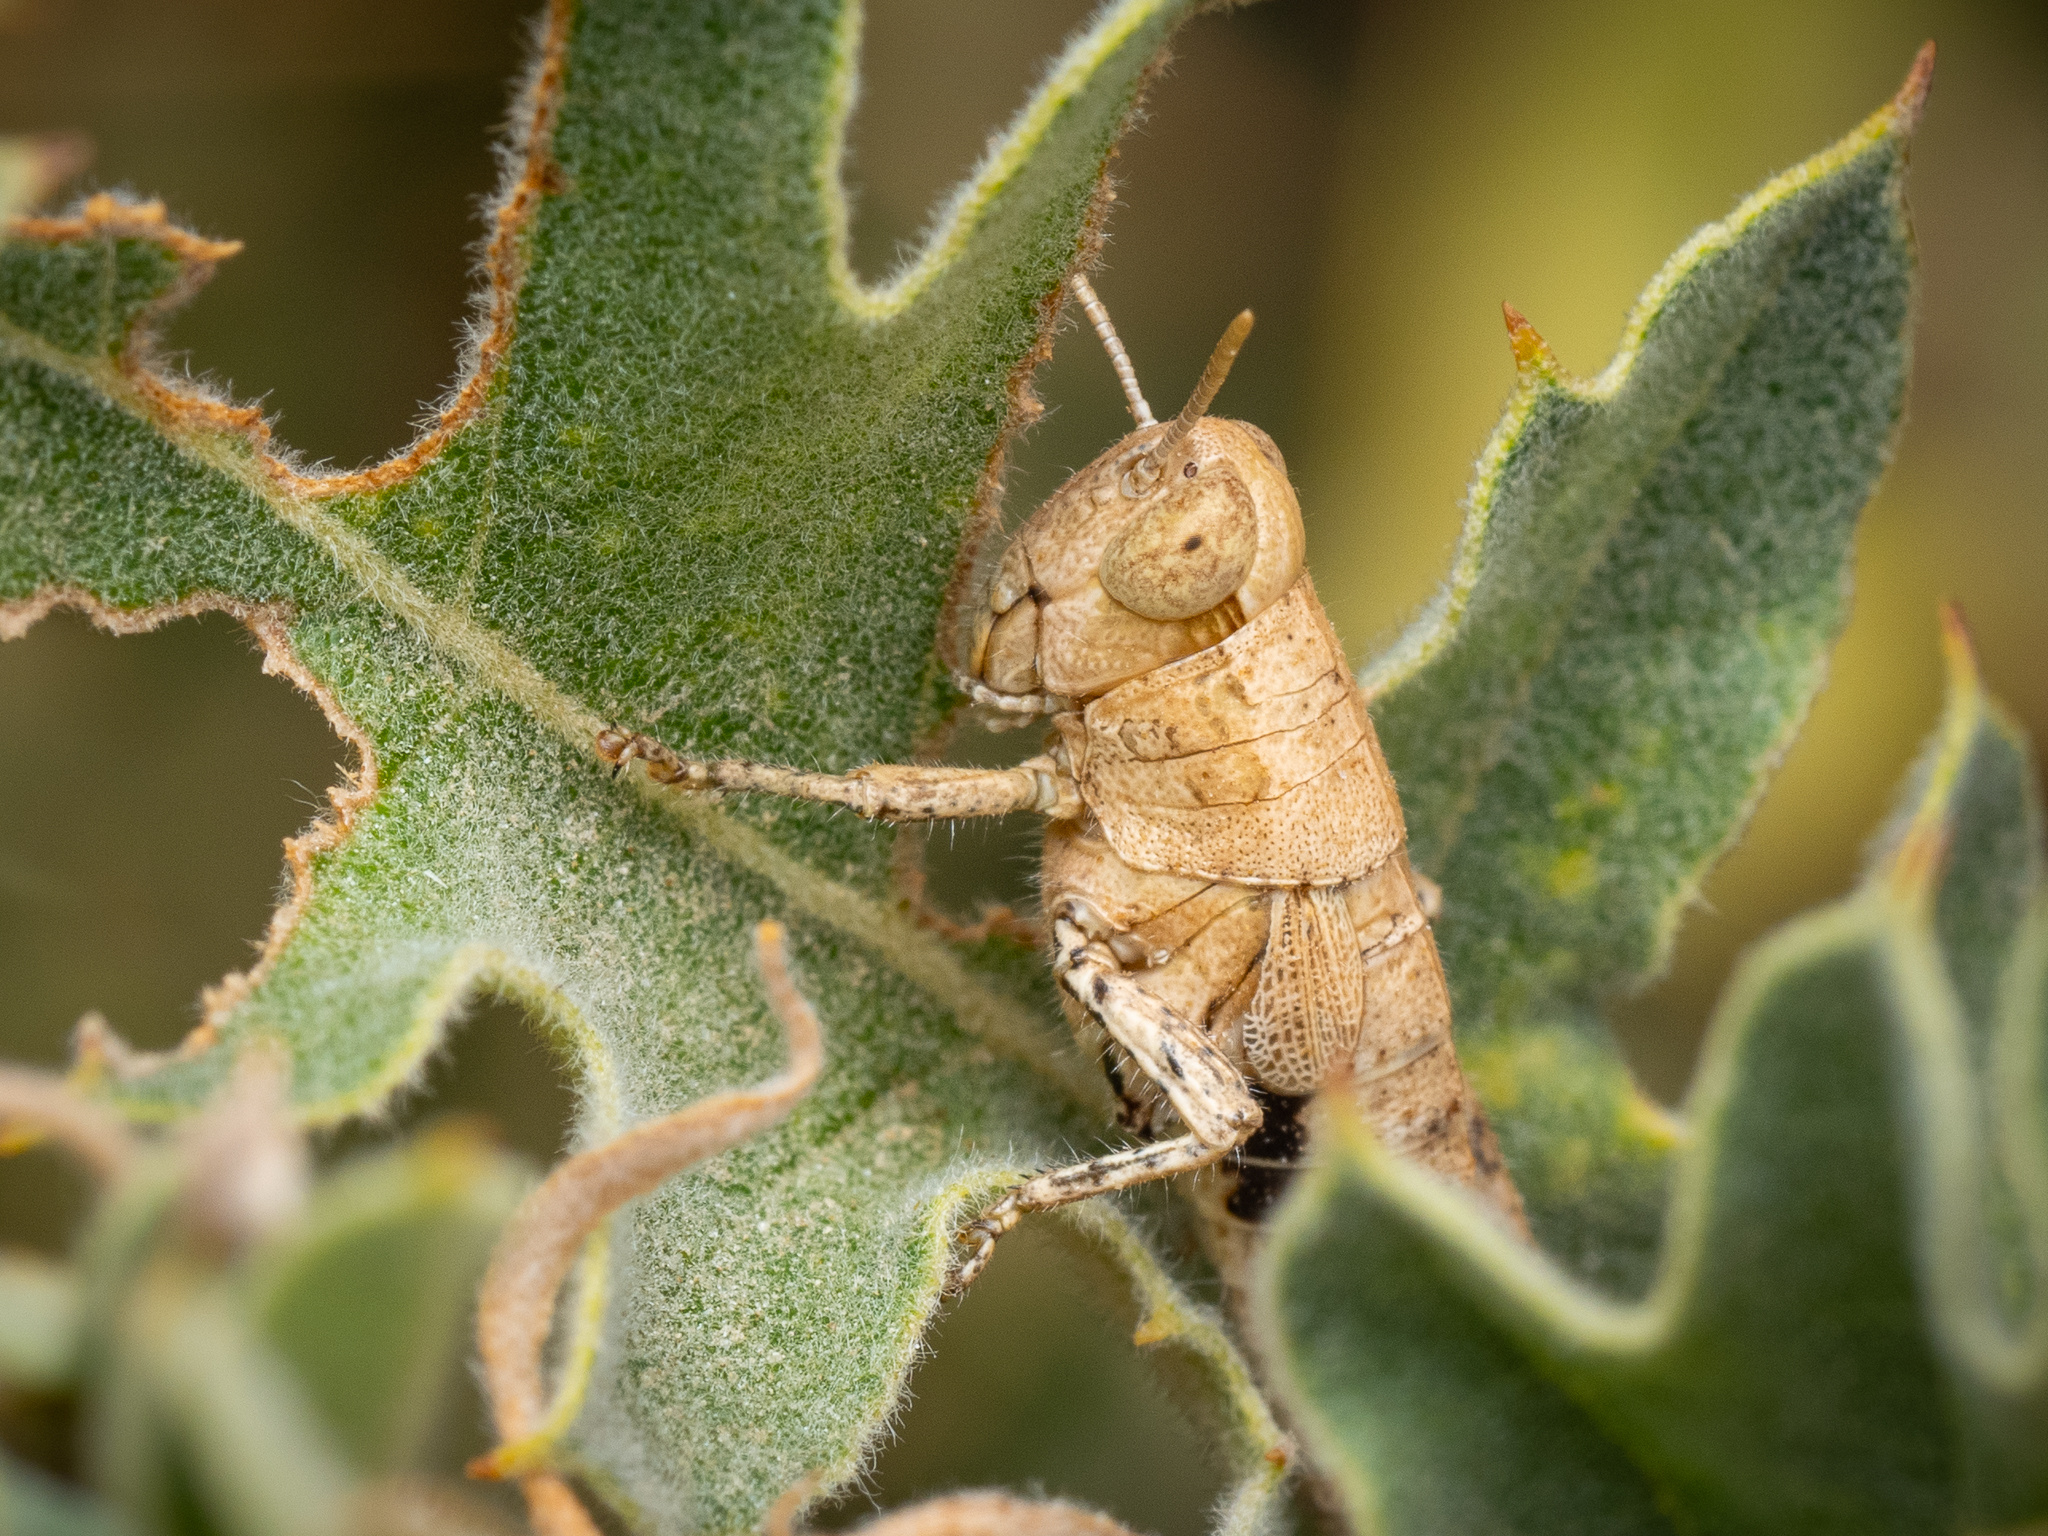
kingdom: Animalia
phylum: Arthropoda
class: Insecta
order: Orthoptera
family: Acrididae
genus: Pezotettix
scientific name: Pezotettix giornae
